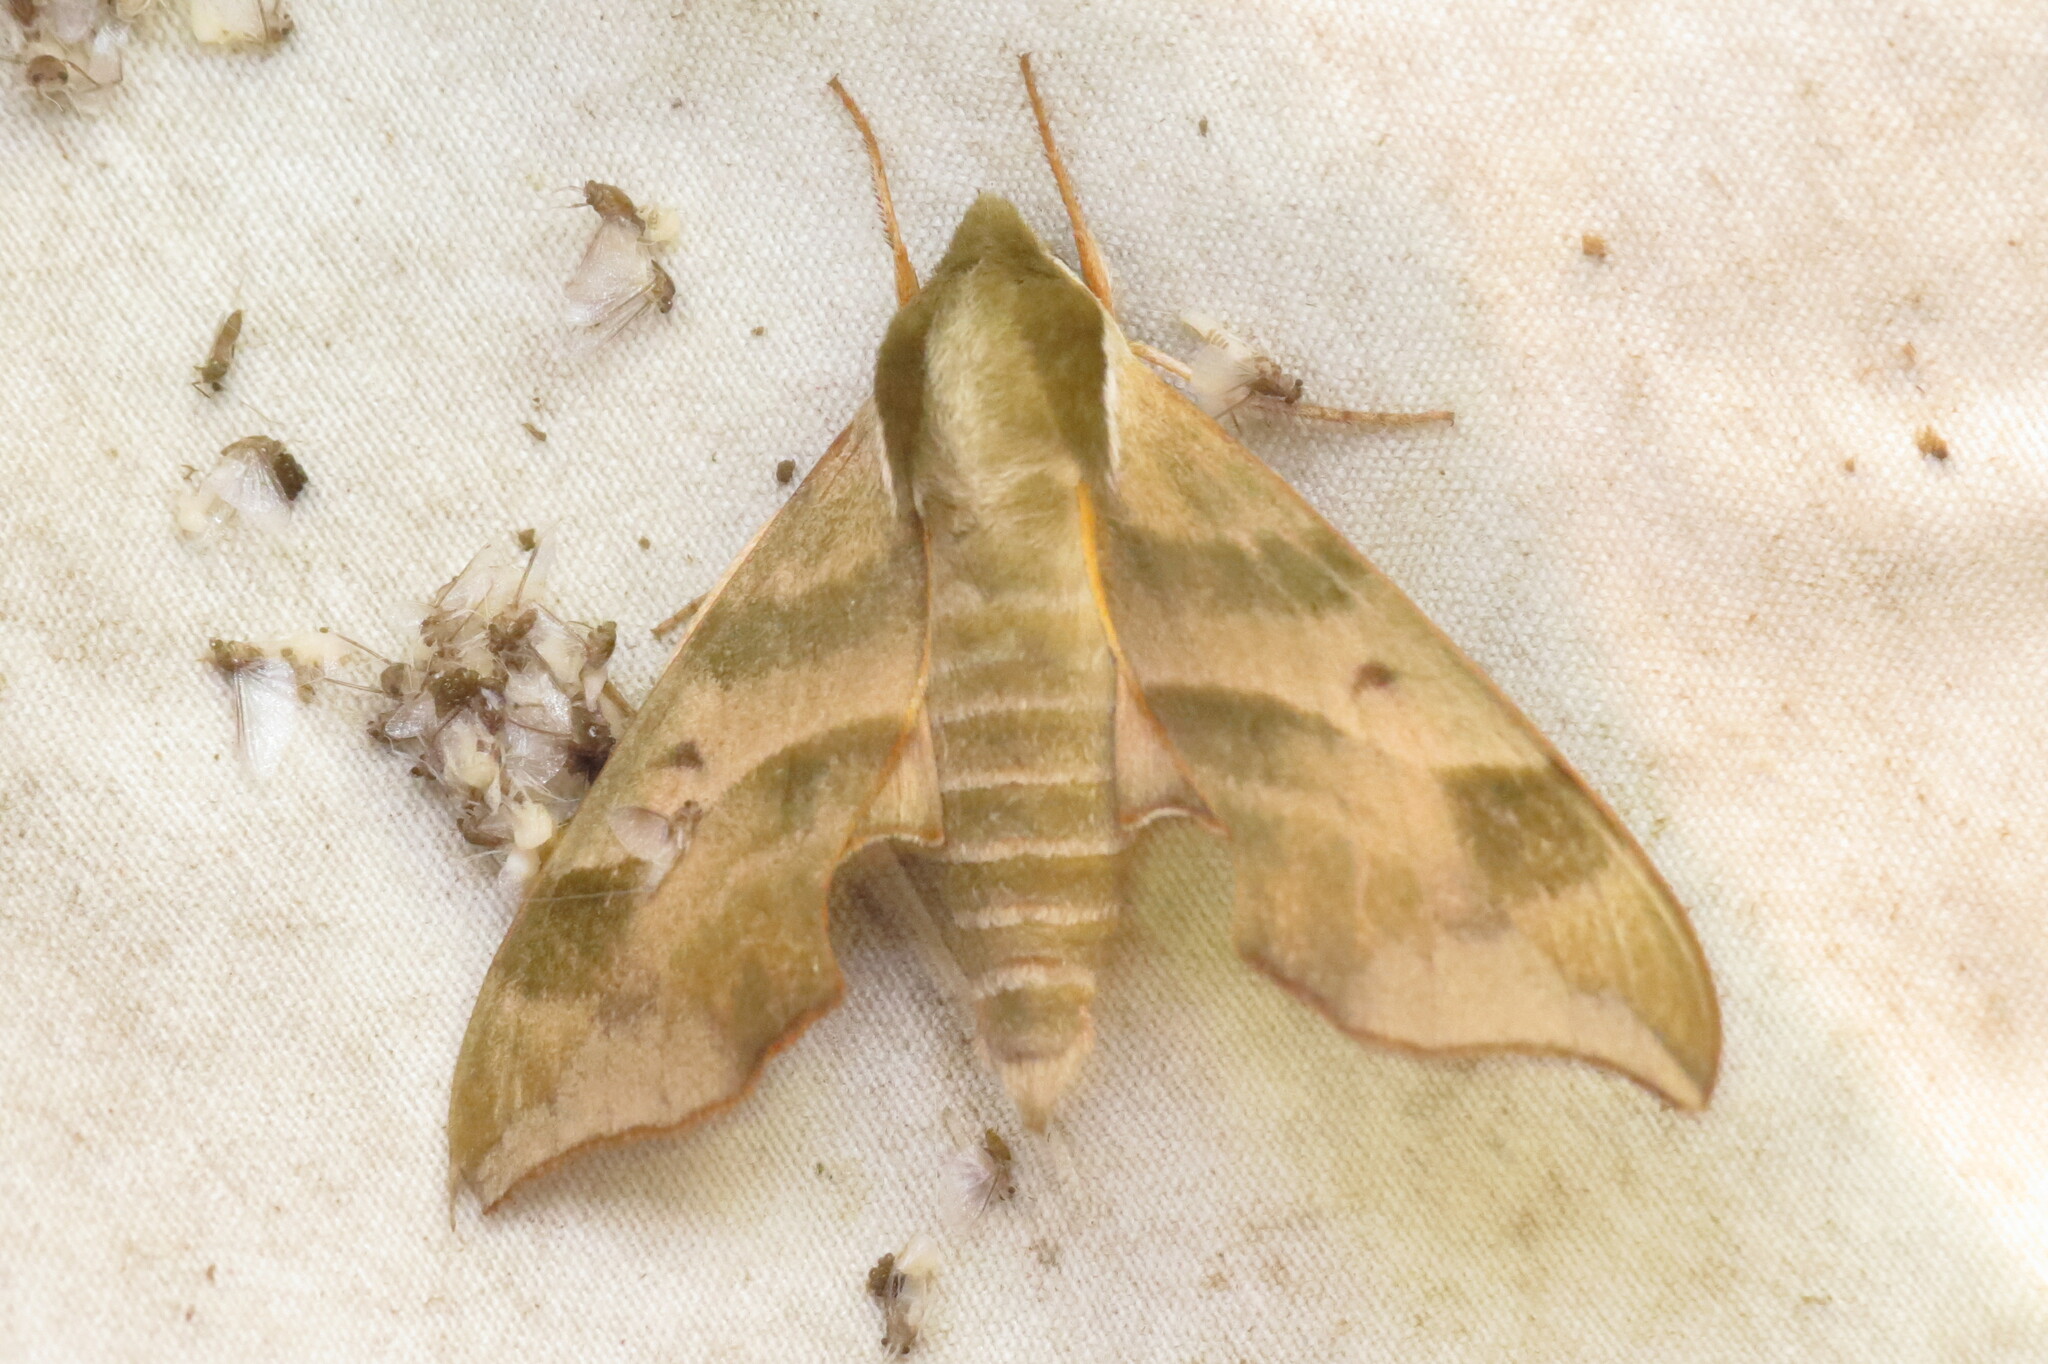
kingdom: Animalia
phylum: Arthropoda
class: Insecta
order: Lepidoptera
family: Sphingidae
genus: Darapsa
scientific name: Darapsa myron
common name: Hog sphinx
